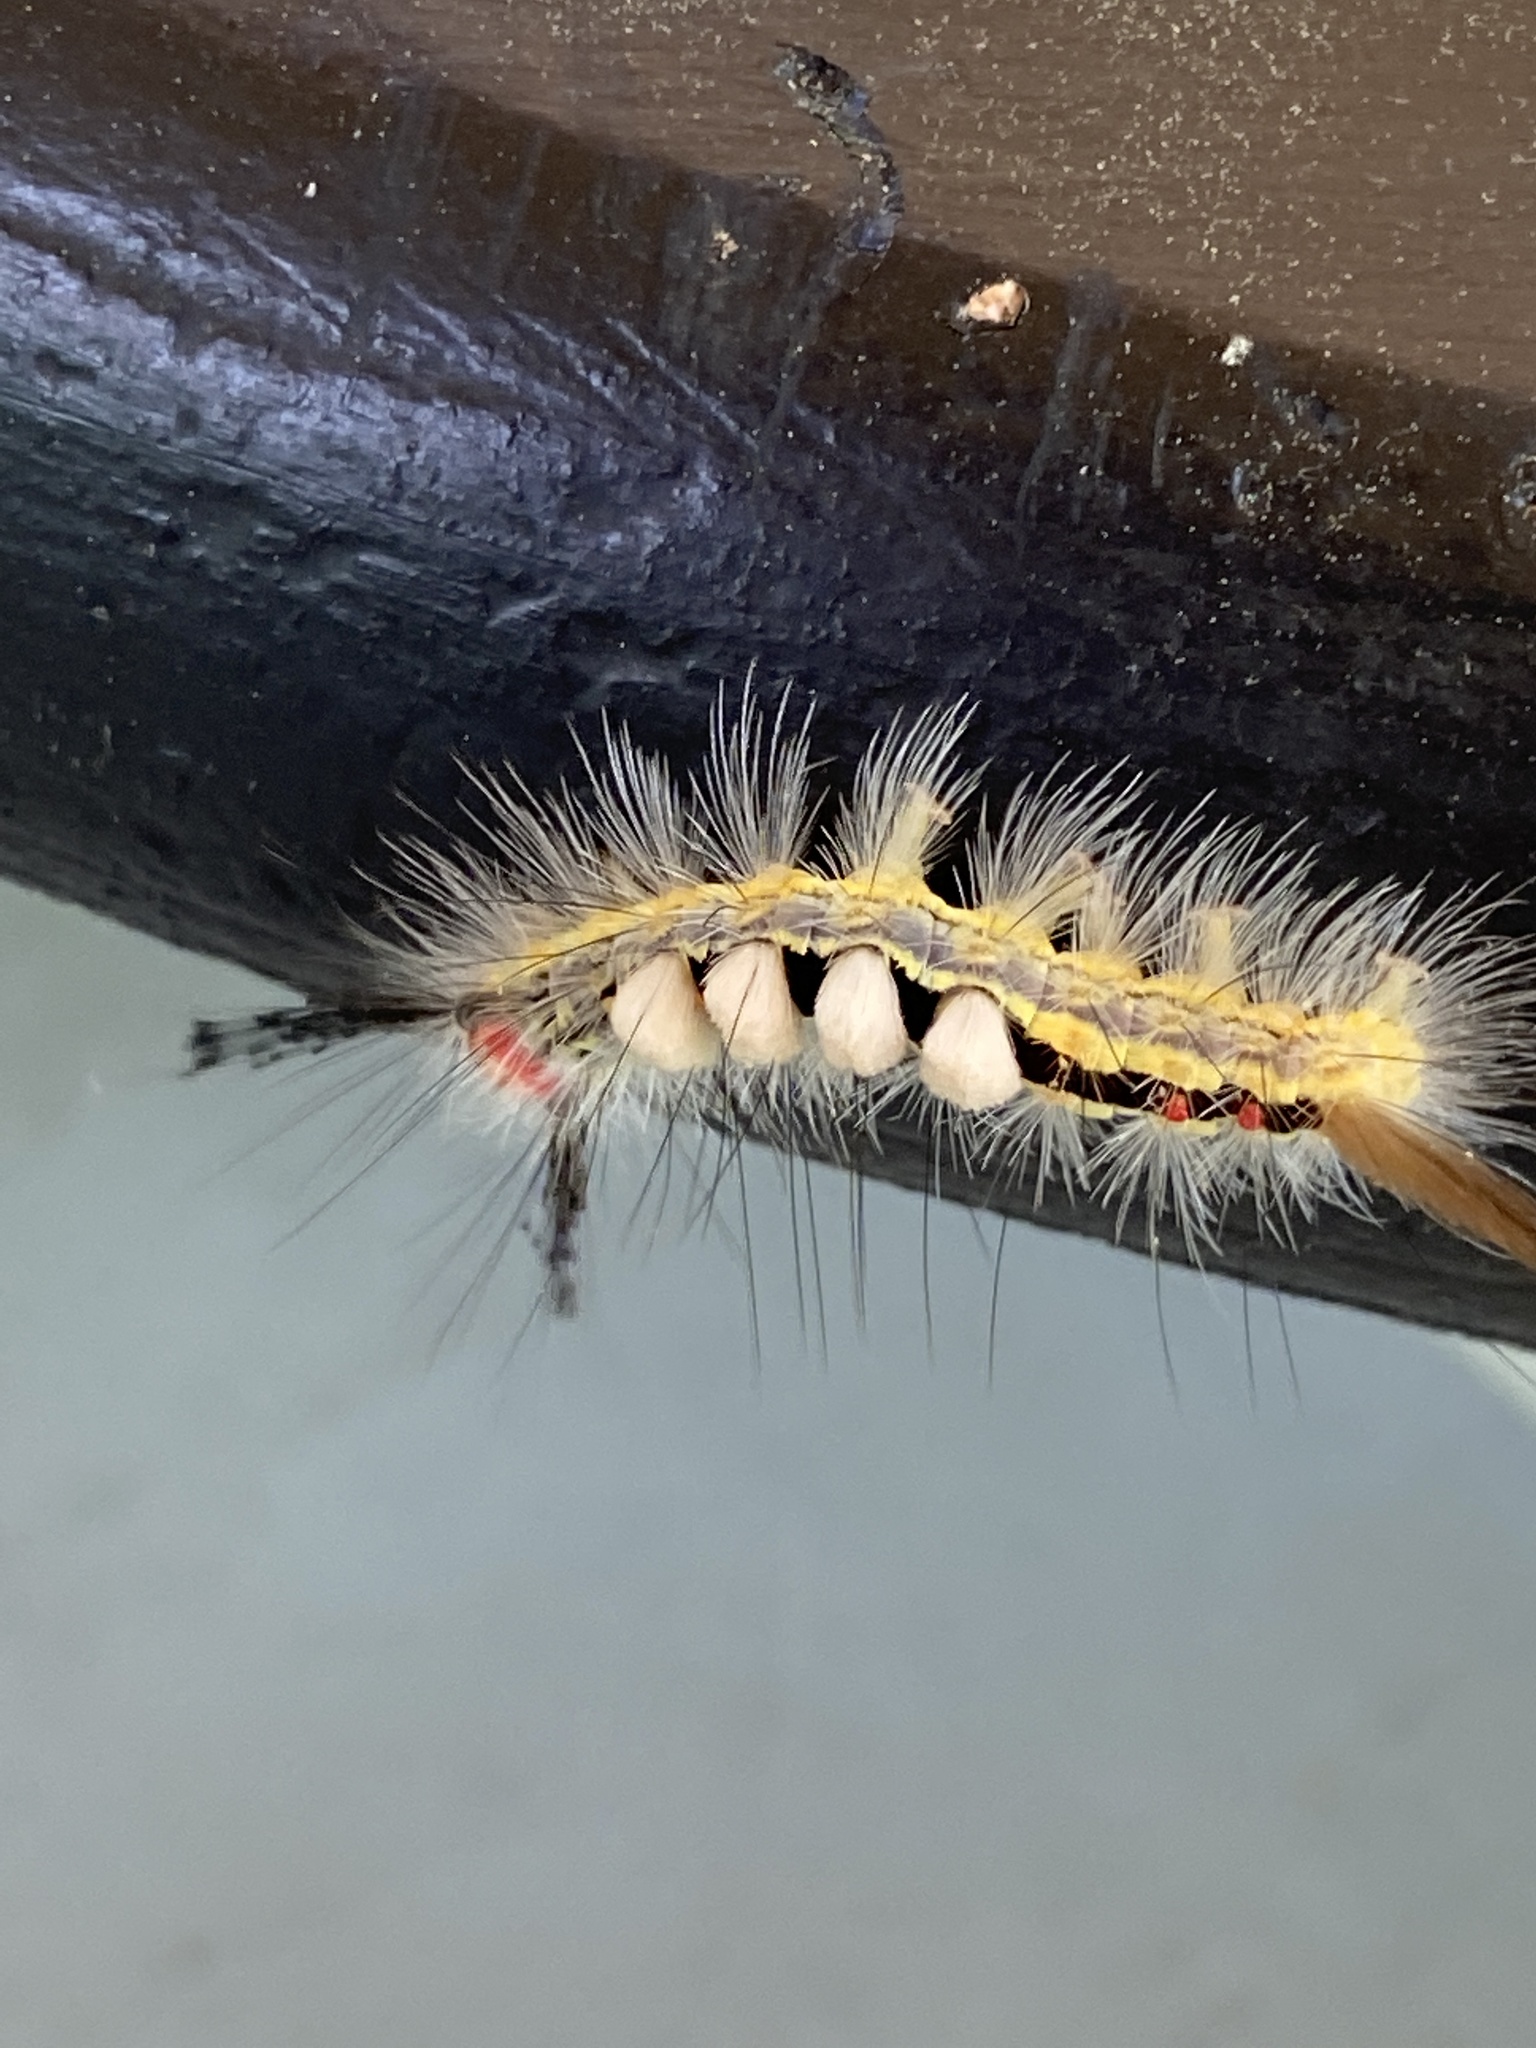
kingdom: Animalia
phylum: Arthropoda
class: Insecta
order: Lepidoptera
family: Erebidae
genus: Orgyia
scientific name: Orgyia leucostigma
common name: White-marked tussock moth
